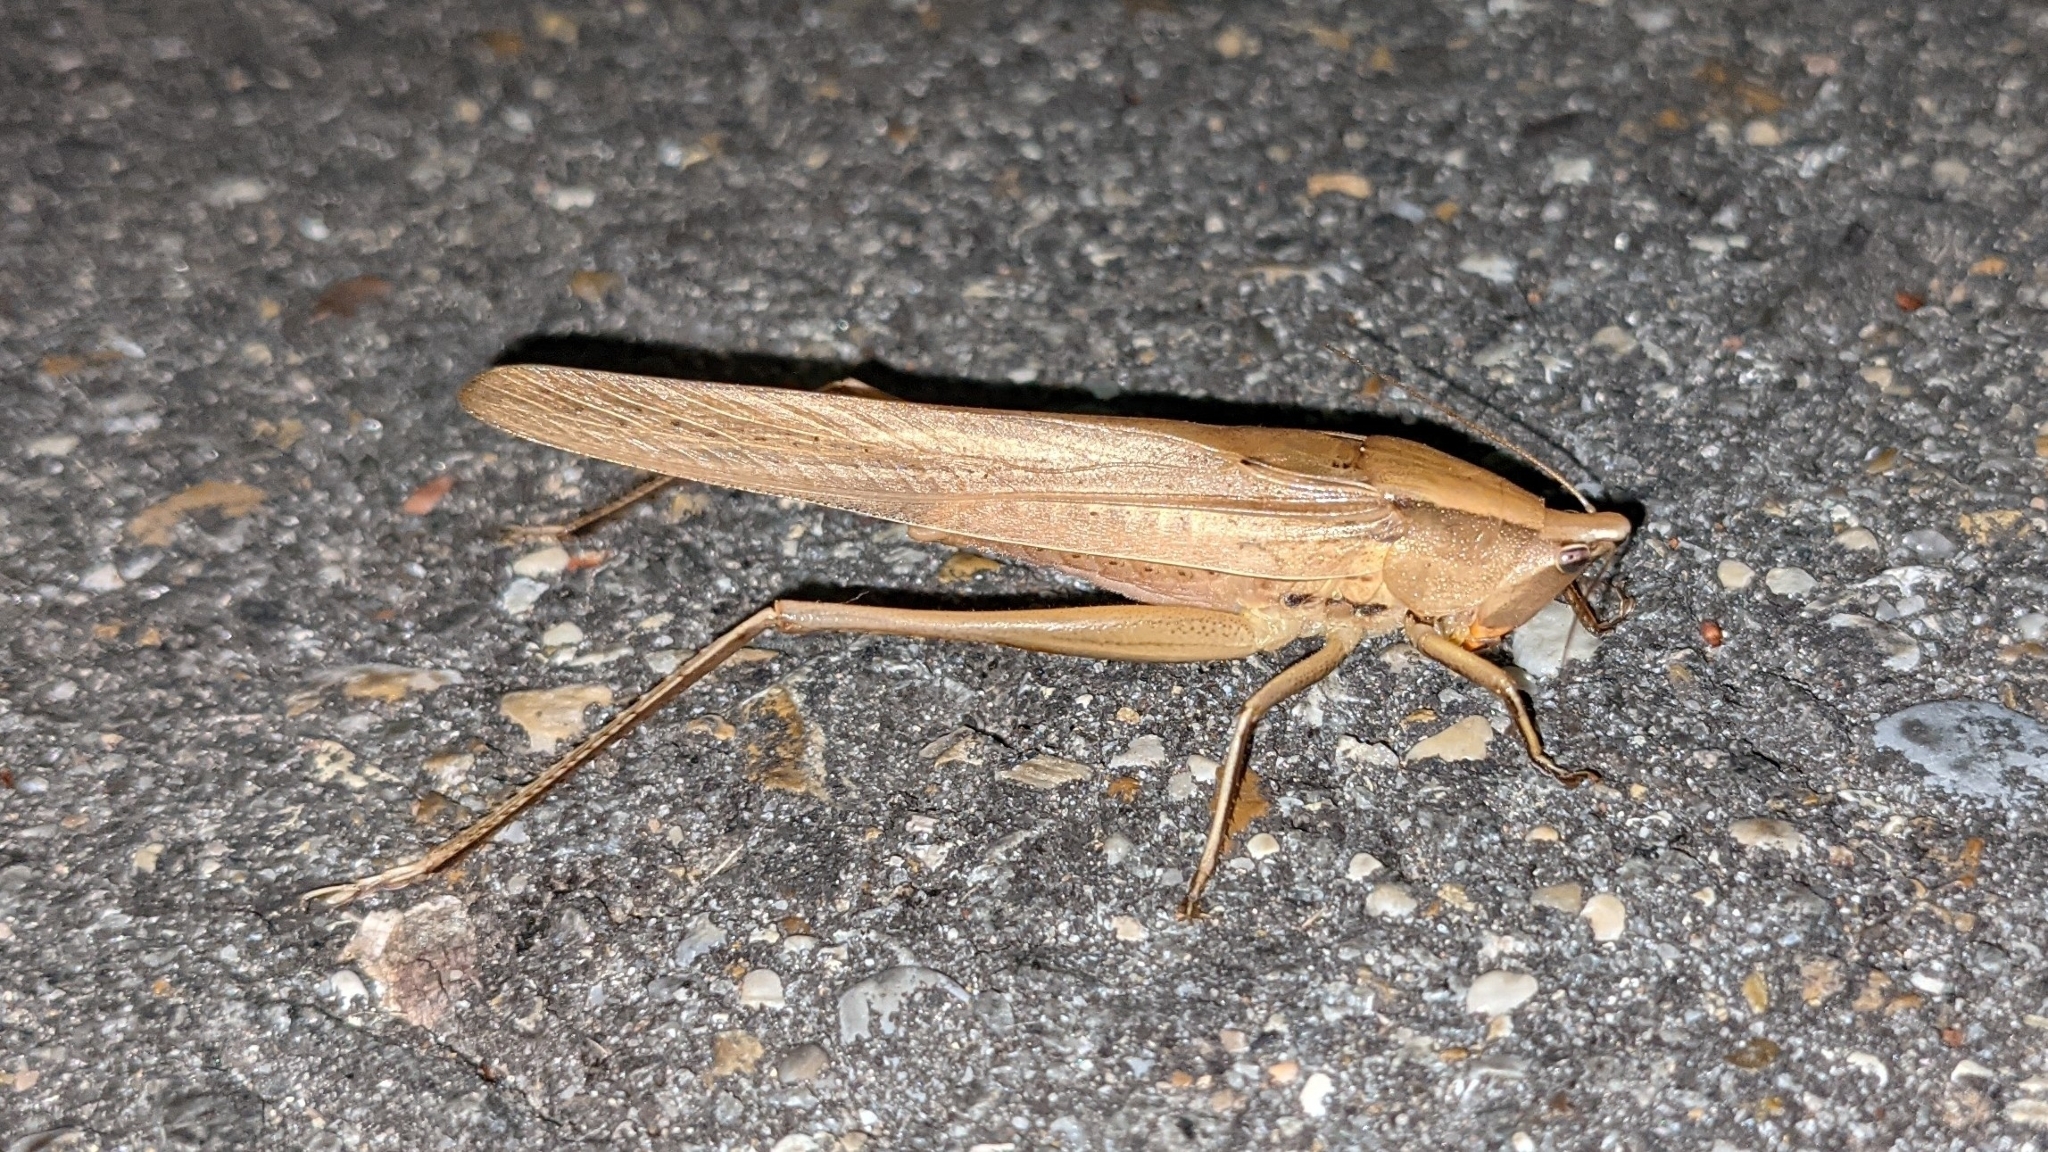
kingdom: Animalia
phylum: Arthropoda
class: Insecta
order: Orthoptera
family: Tettigoniidae
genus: Neoconocephalus
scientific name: Neoconocephalus triops
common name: Broad-tipped conehead
